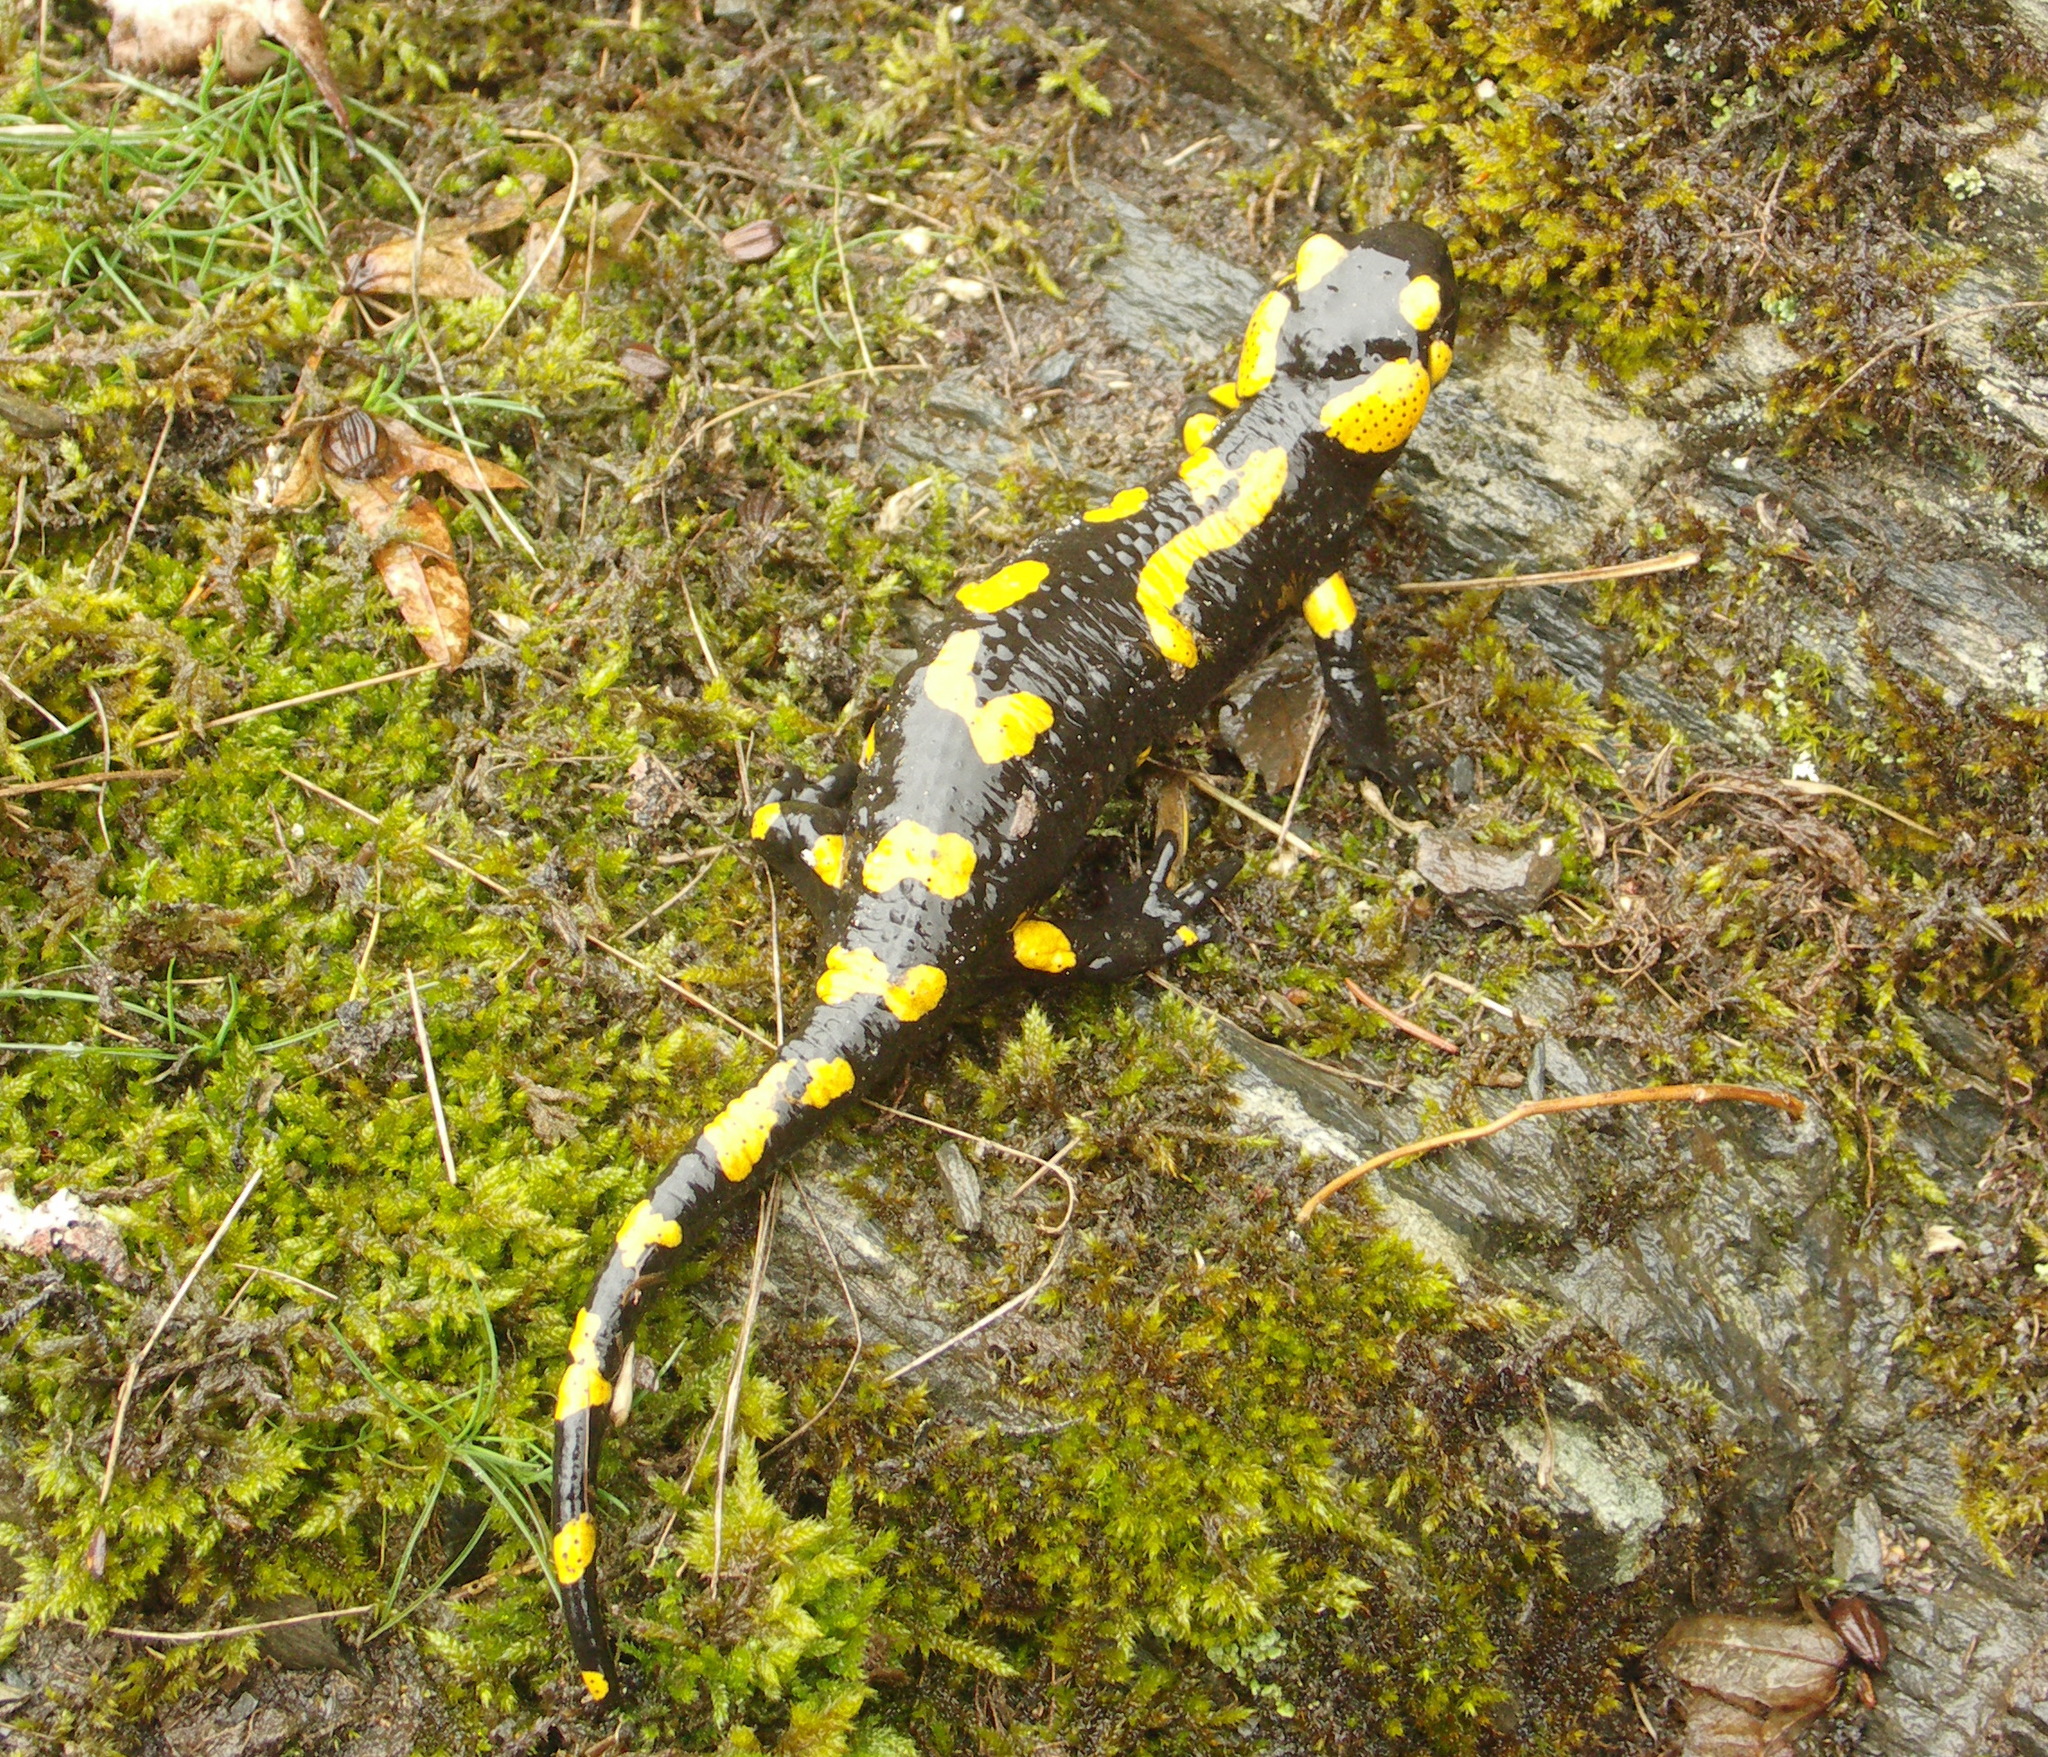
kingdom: Animalia
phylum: Chordata
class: Amphibia
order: Caudata
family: Salamandridae
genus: Salamandra
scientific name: Salamandra salamandra
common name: Fire salamander
